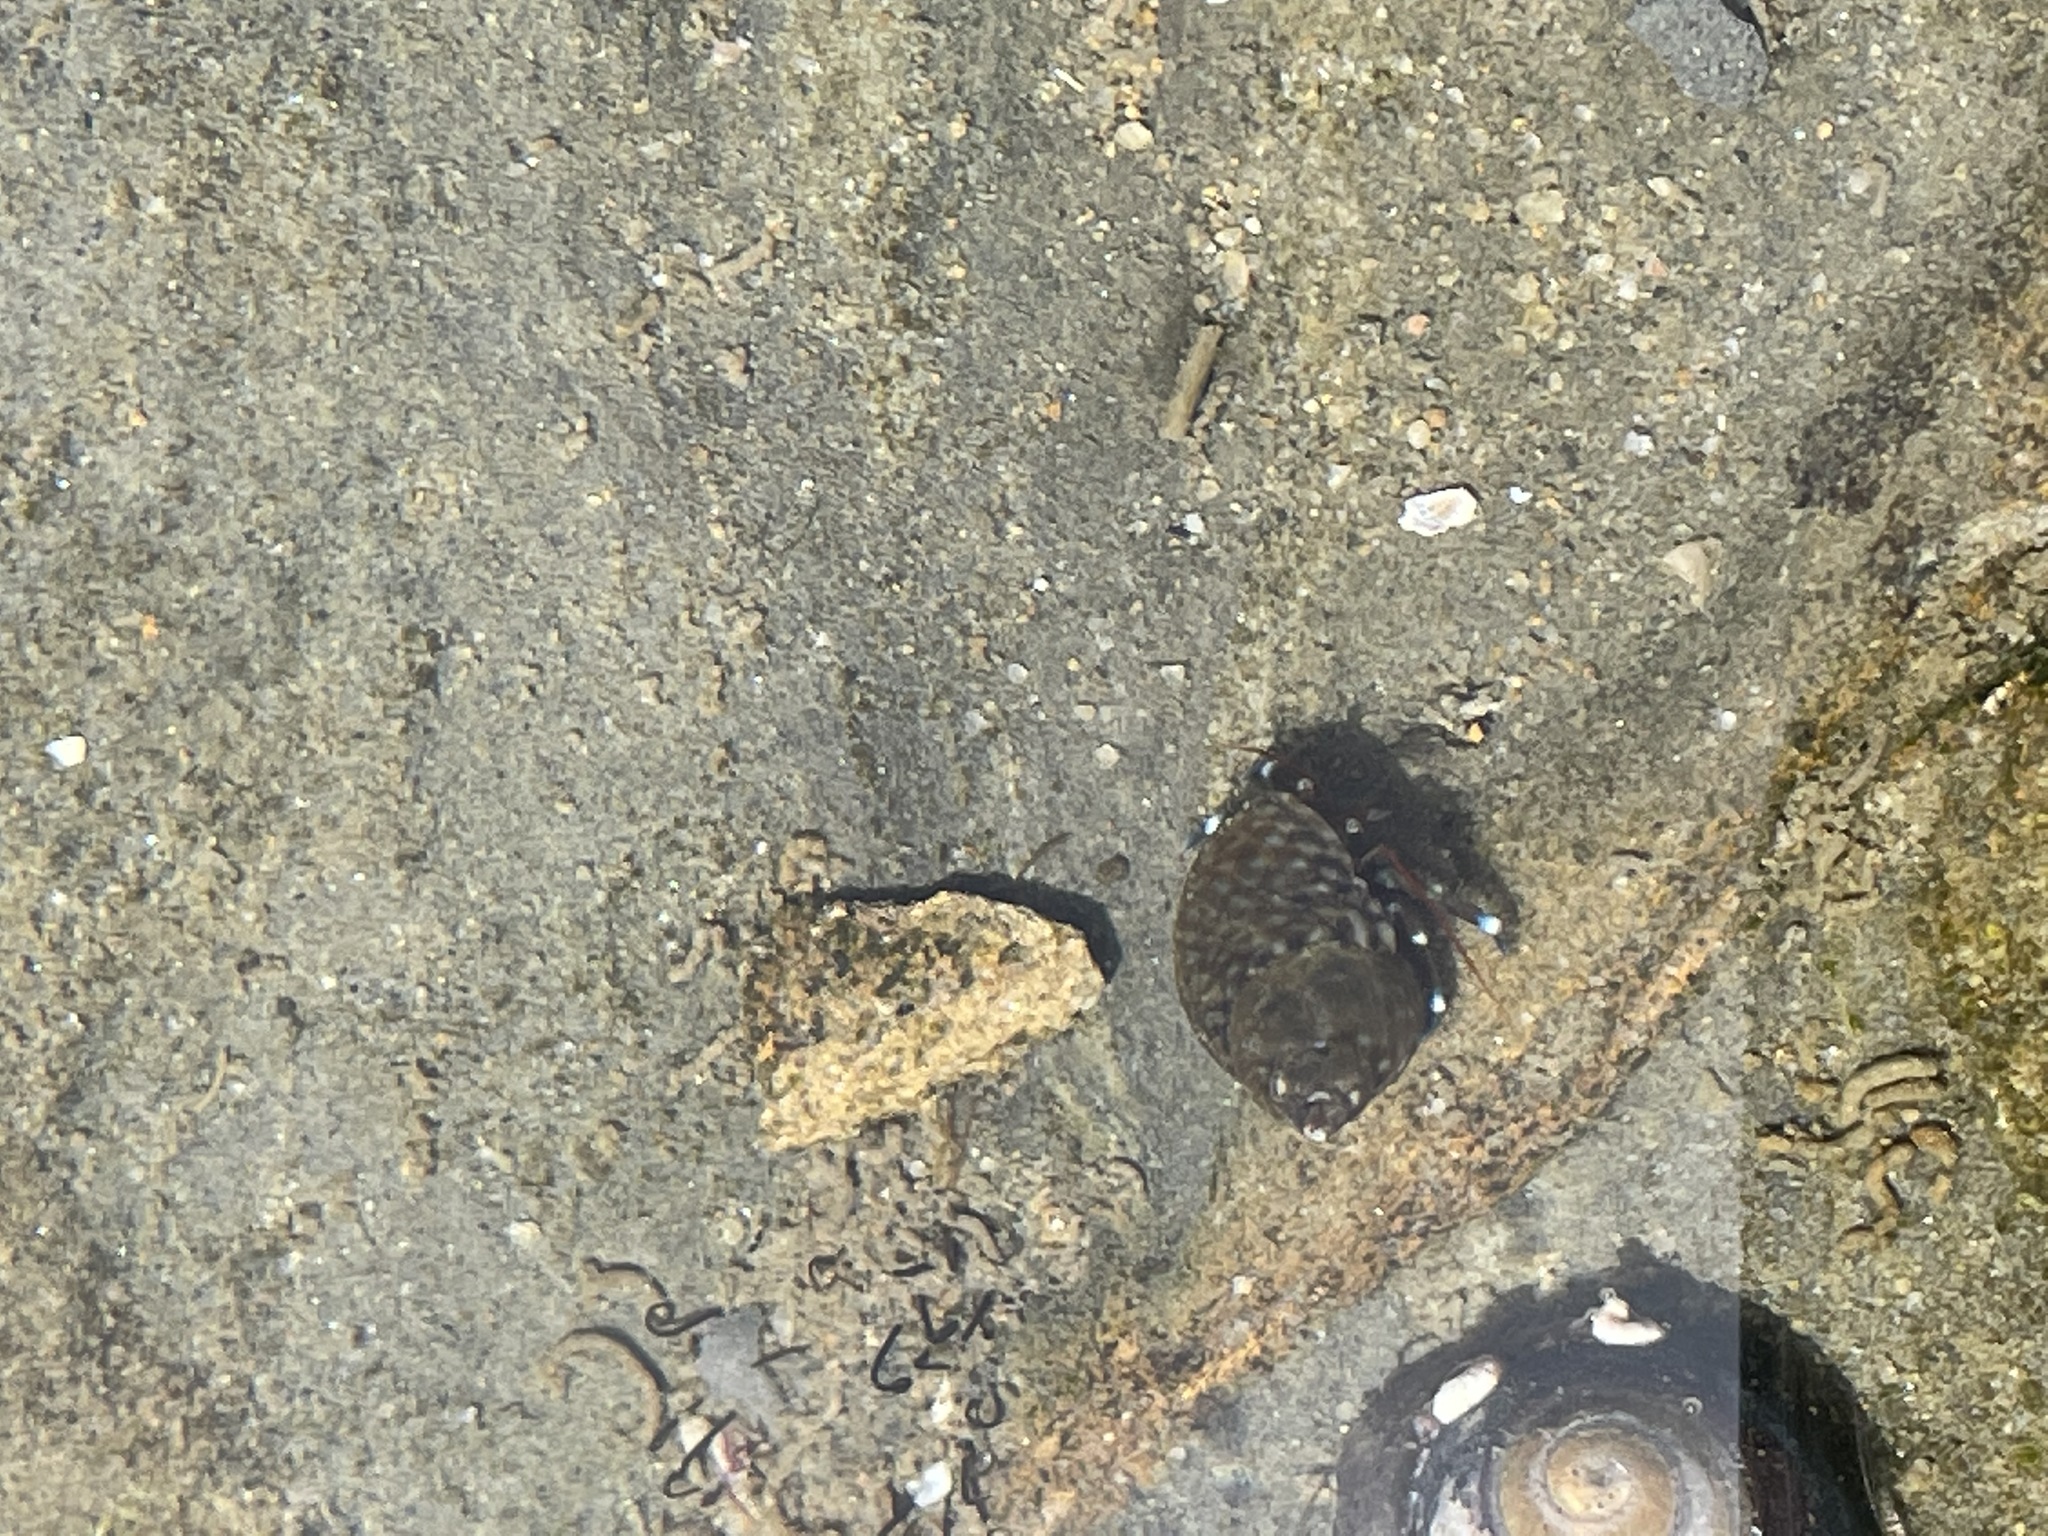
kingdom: Animalia
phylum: Arthropoda
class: Malacostraca
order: Decapoda
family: Paguridae
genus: Pagurus
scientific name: Pagurus samuelis
